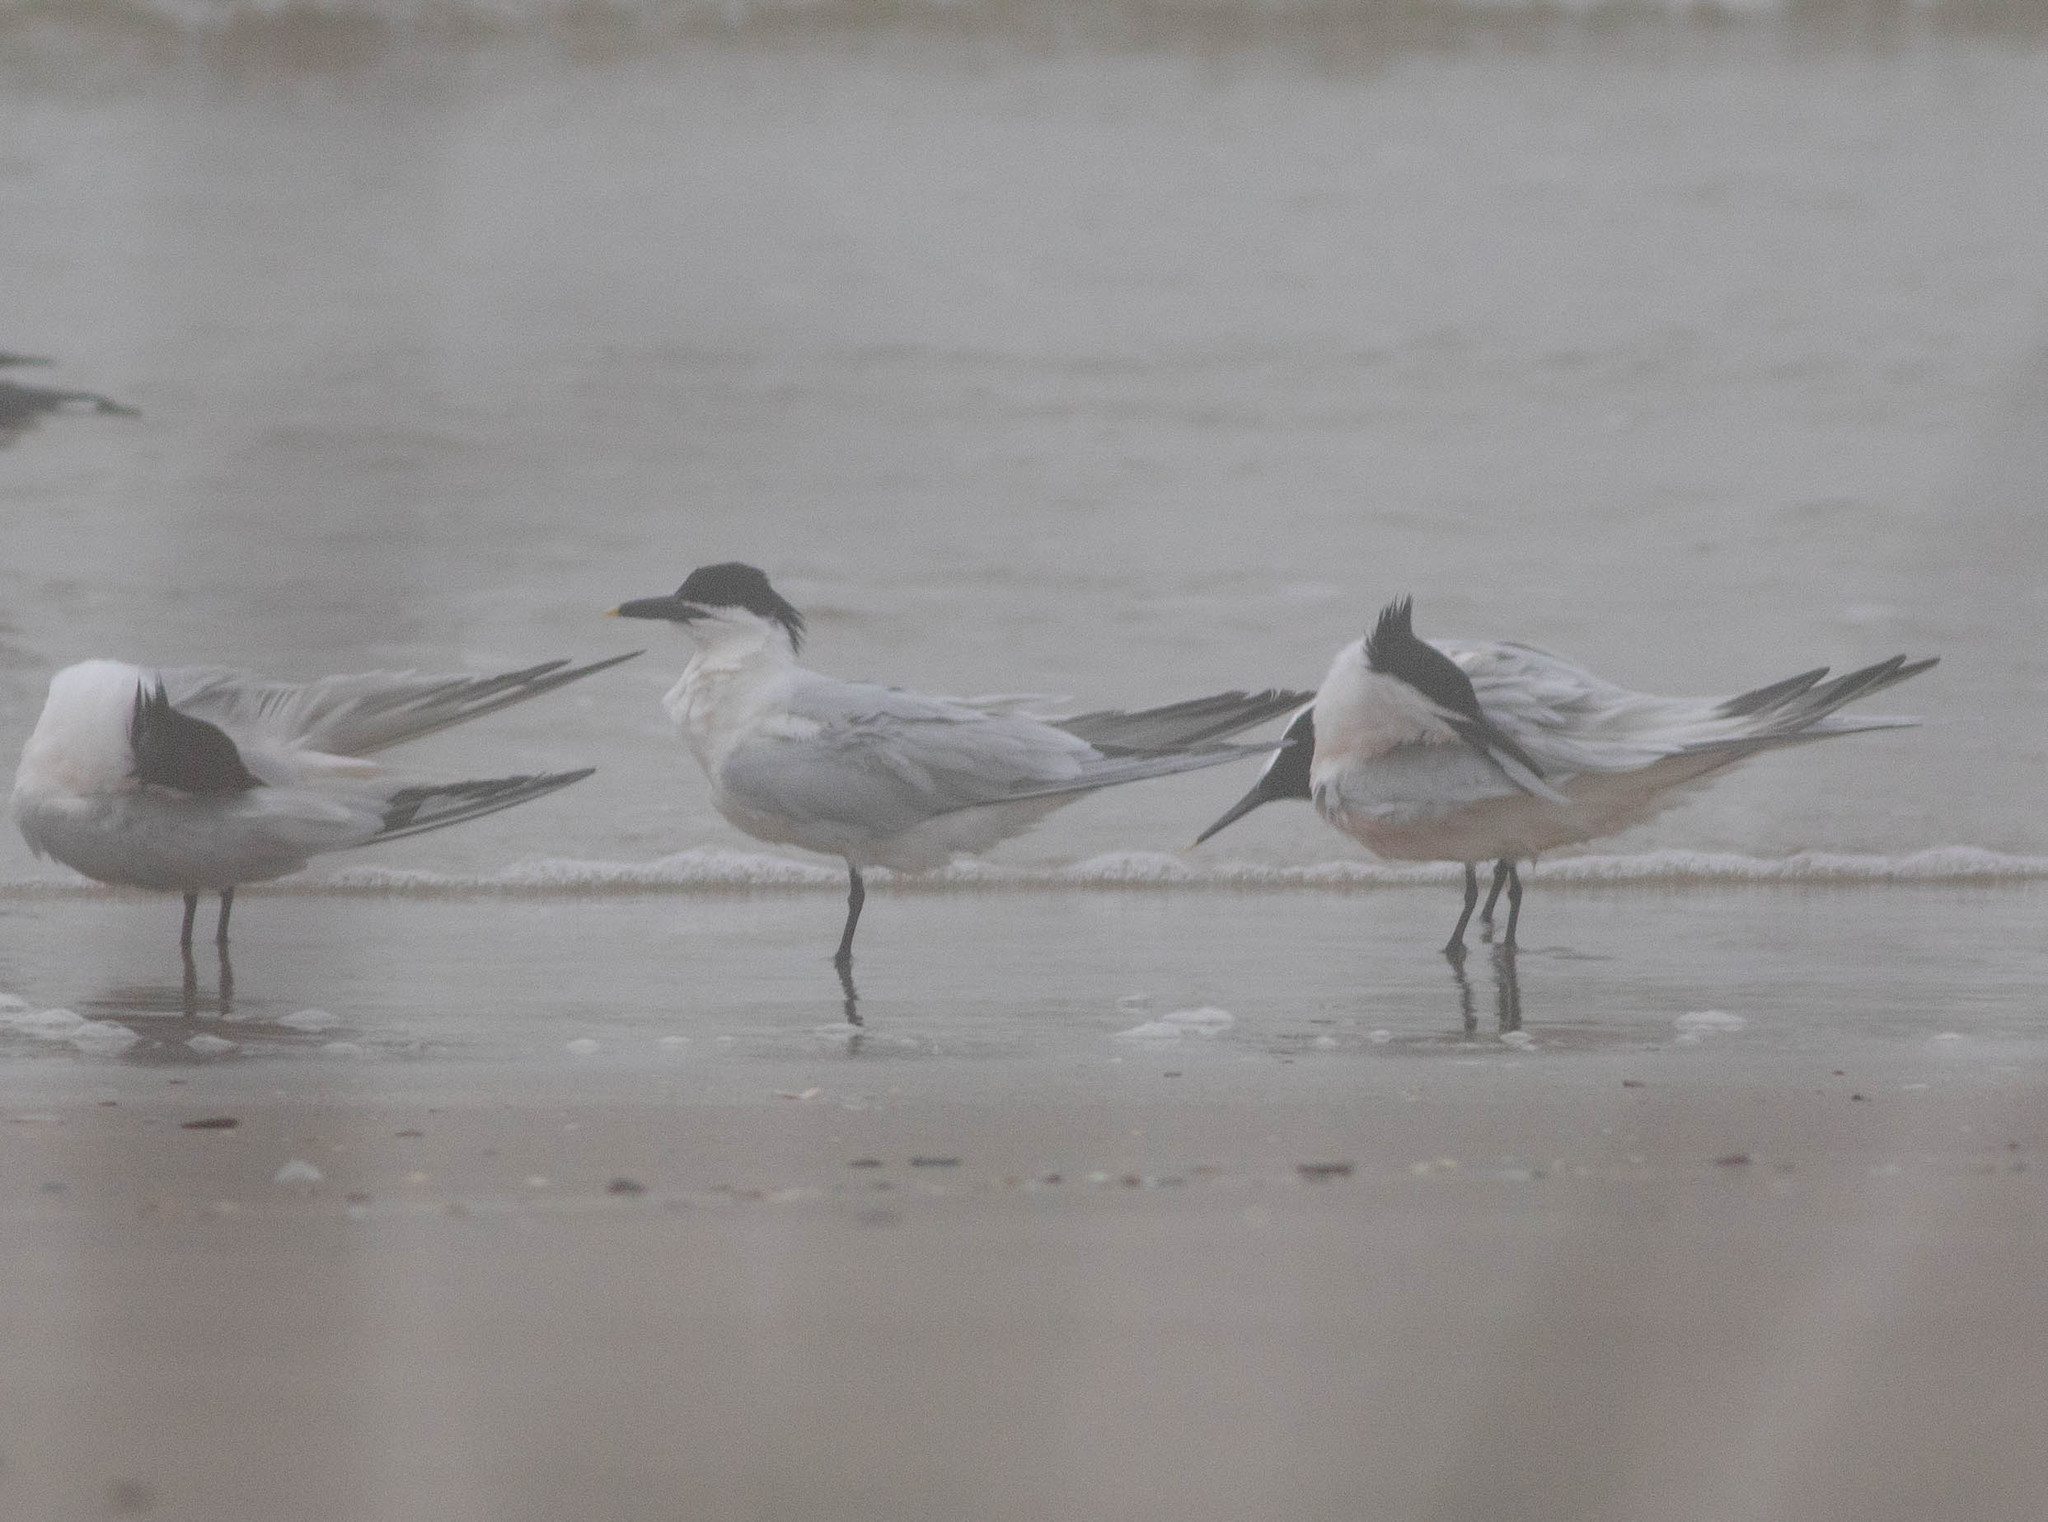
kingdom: Animalia
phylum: Chordata
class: Aves
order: Charadriiformes
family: Laridae
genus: Thalasseus
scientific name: Thalasseus sandvicensis
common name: Sandwich tern
